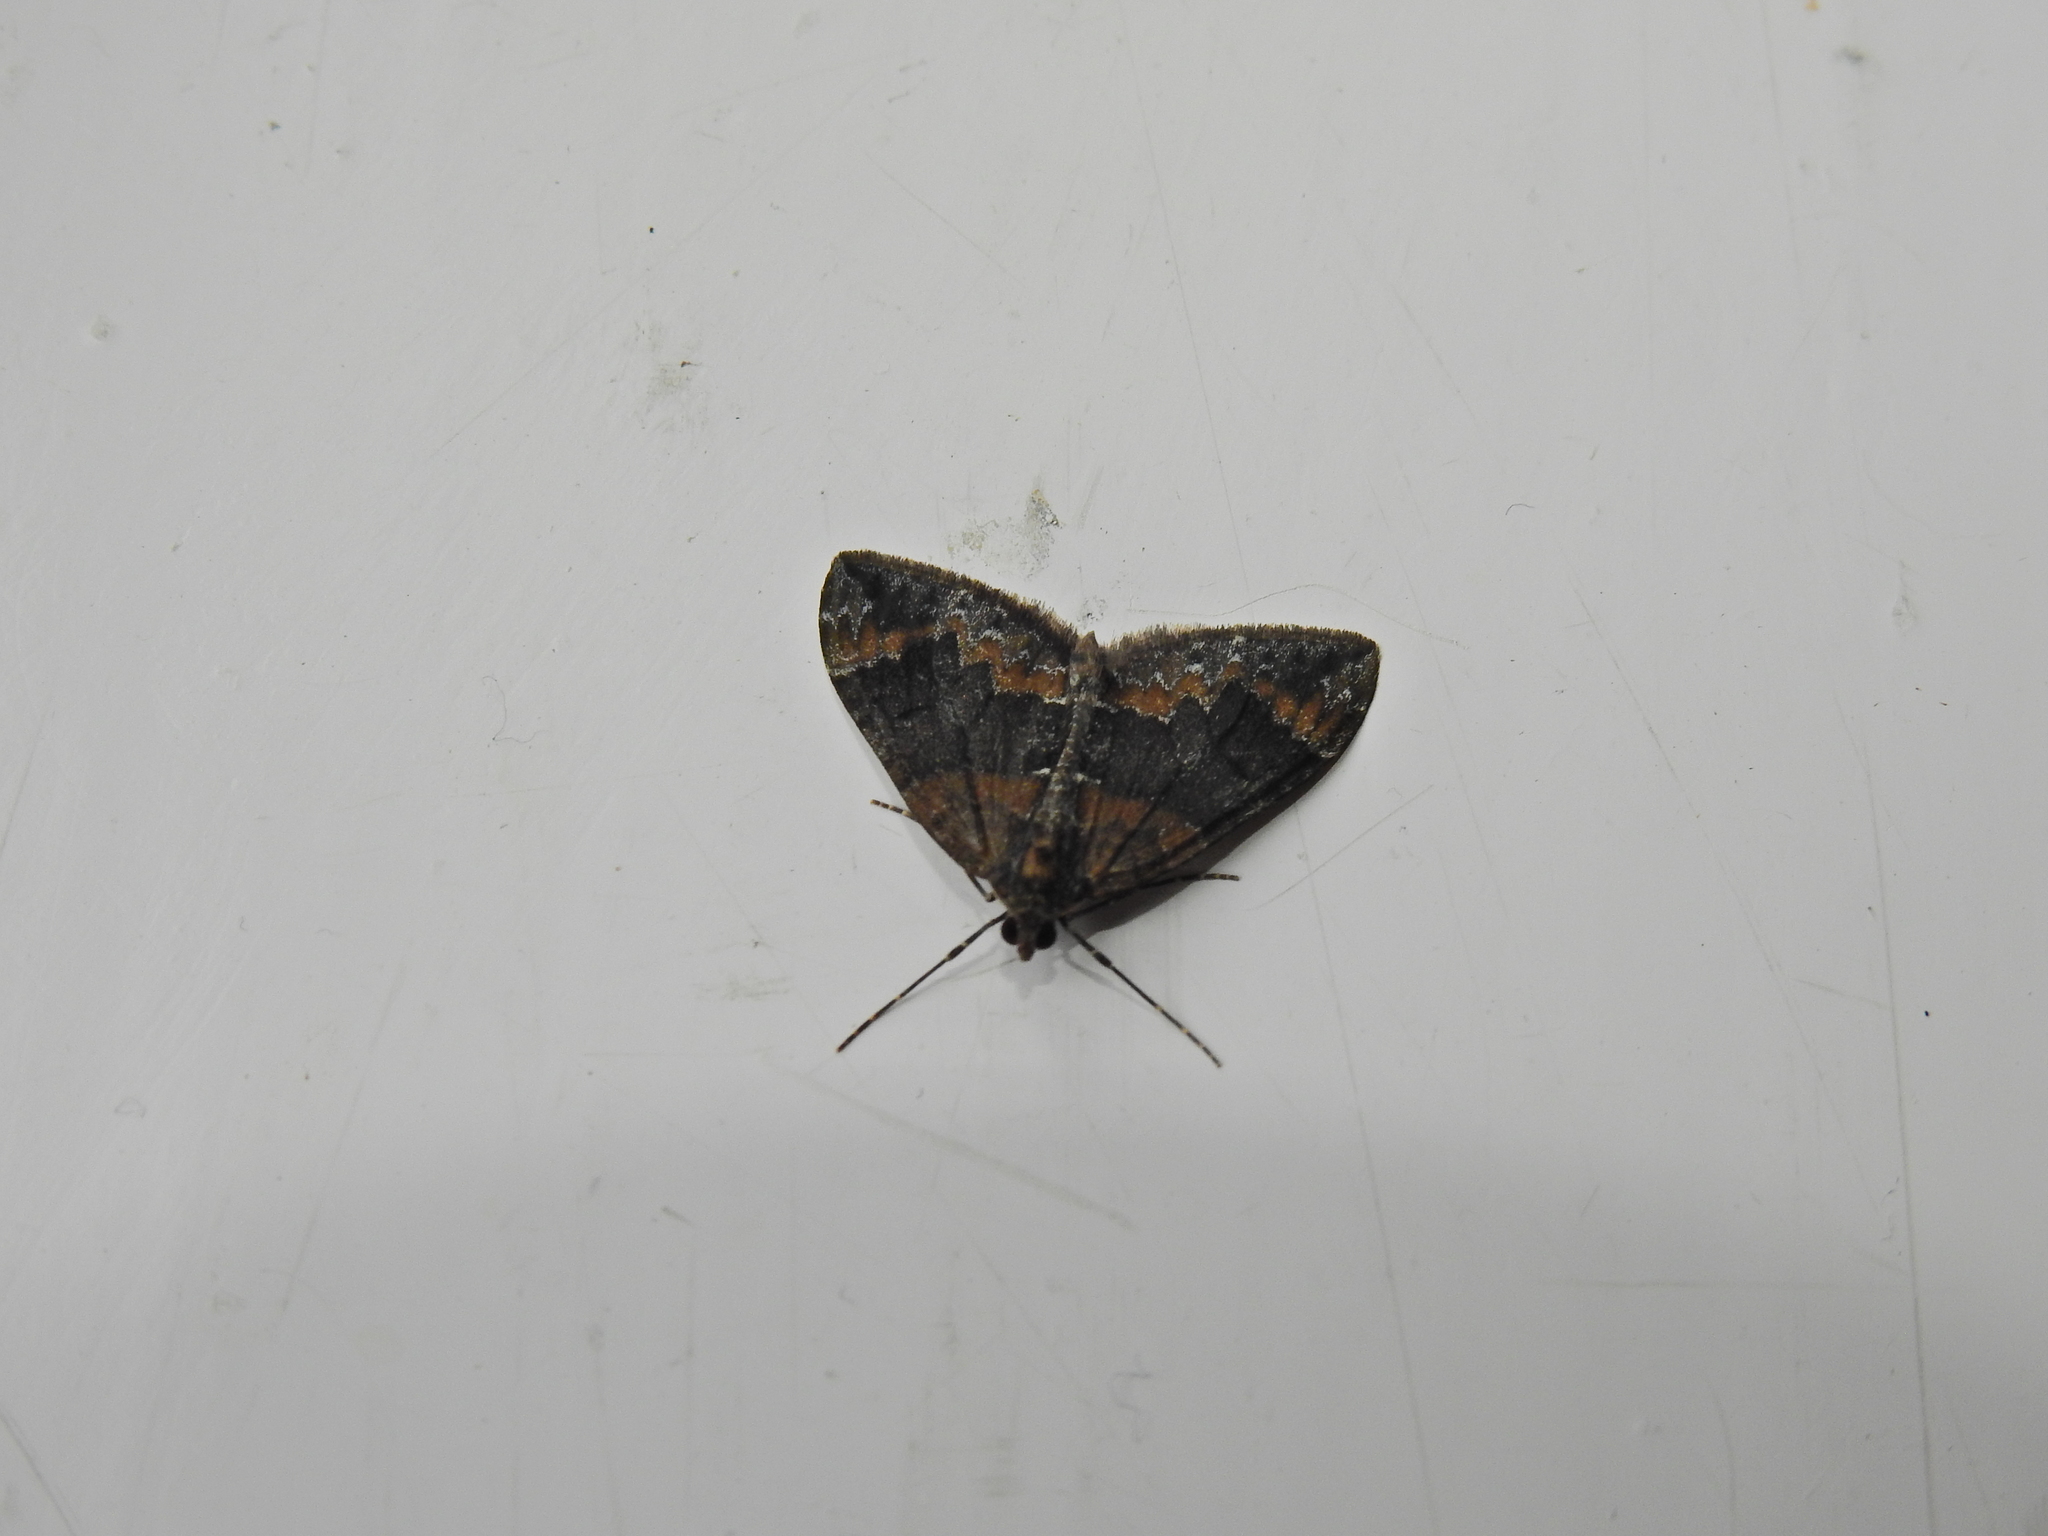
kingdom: Animalia
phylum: Arthropoda
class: Insecta
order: Lepidoptera
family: Geometridae
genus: Dysstroma
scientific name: Dysstroma truncata
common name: Common marbled carpet
